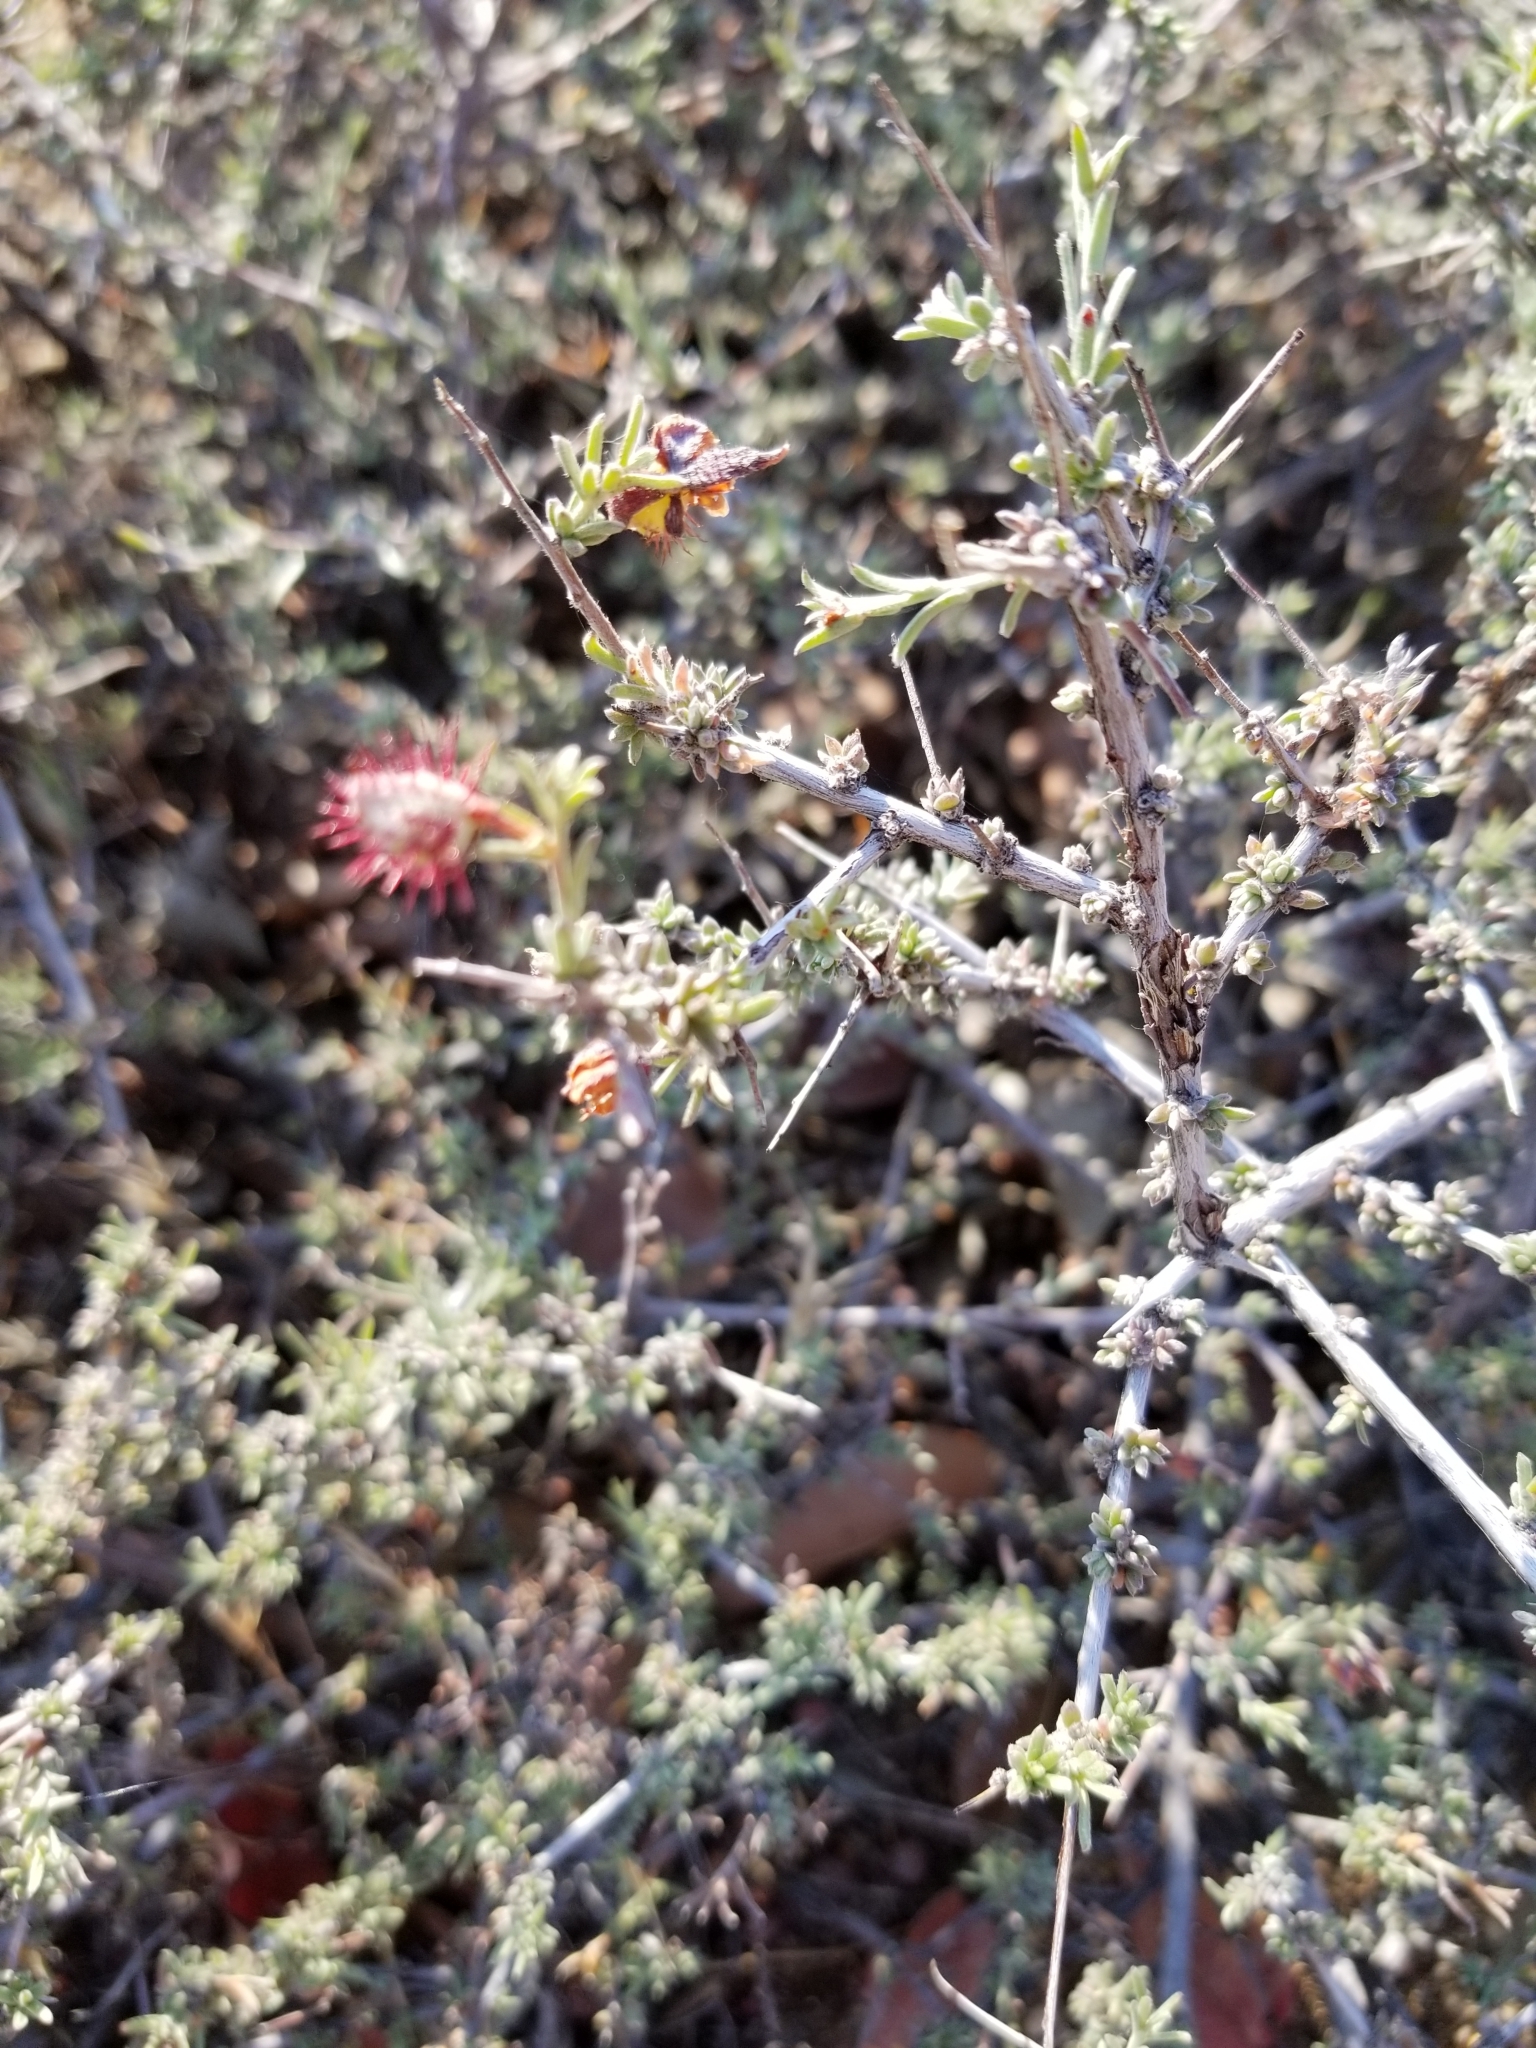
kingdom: Plantae
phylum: Tracheophyta
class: Magnoliopsida
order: Zygophyllales
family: Krameriaceae
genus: Krameria
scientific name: Krameria erecta
